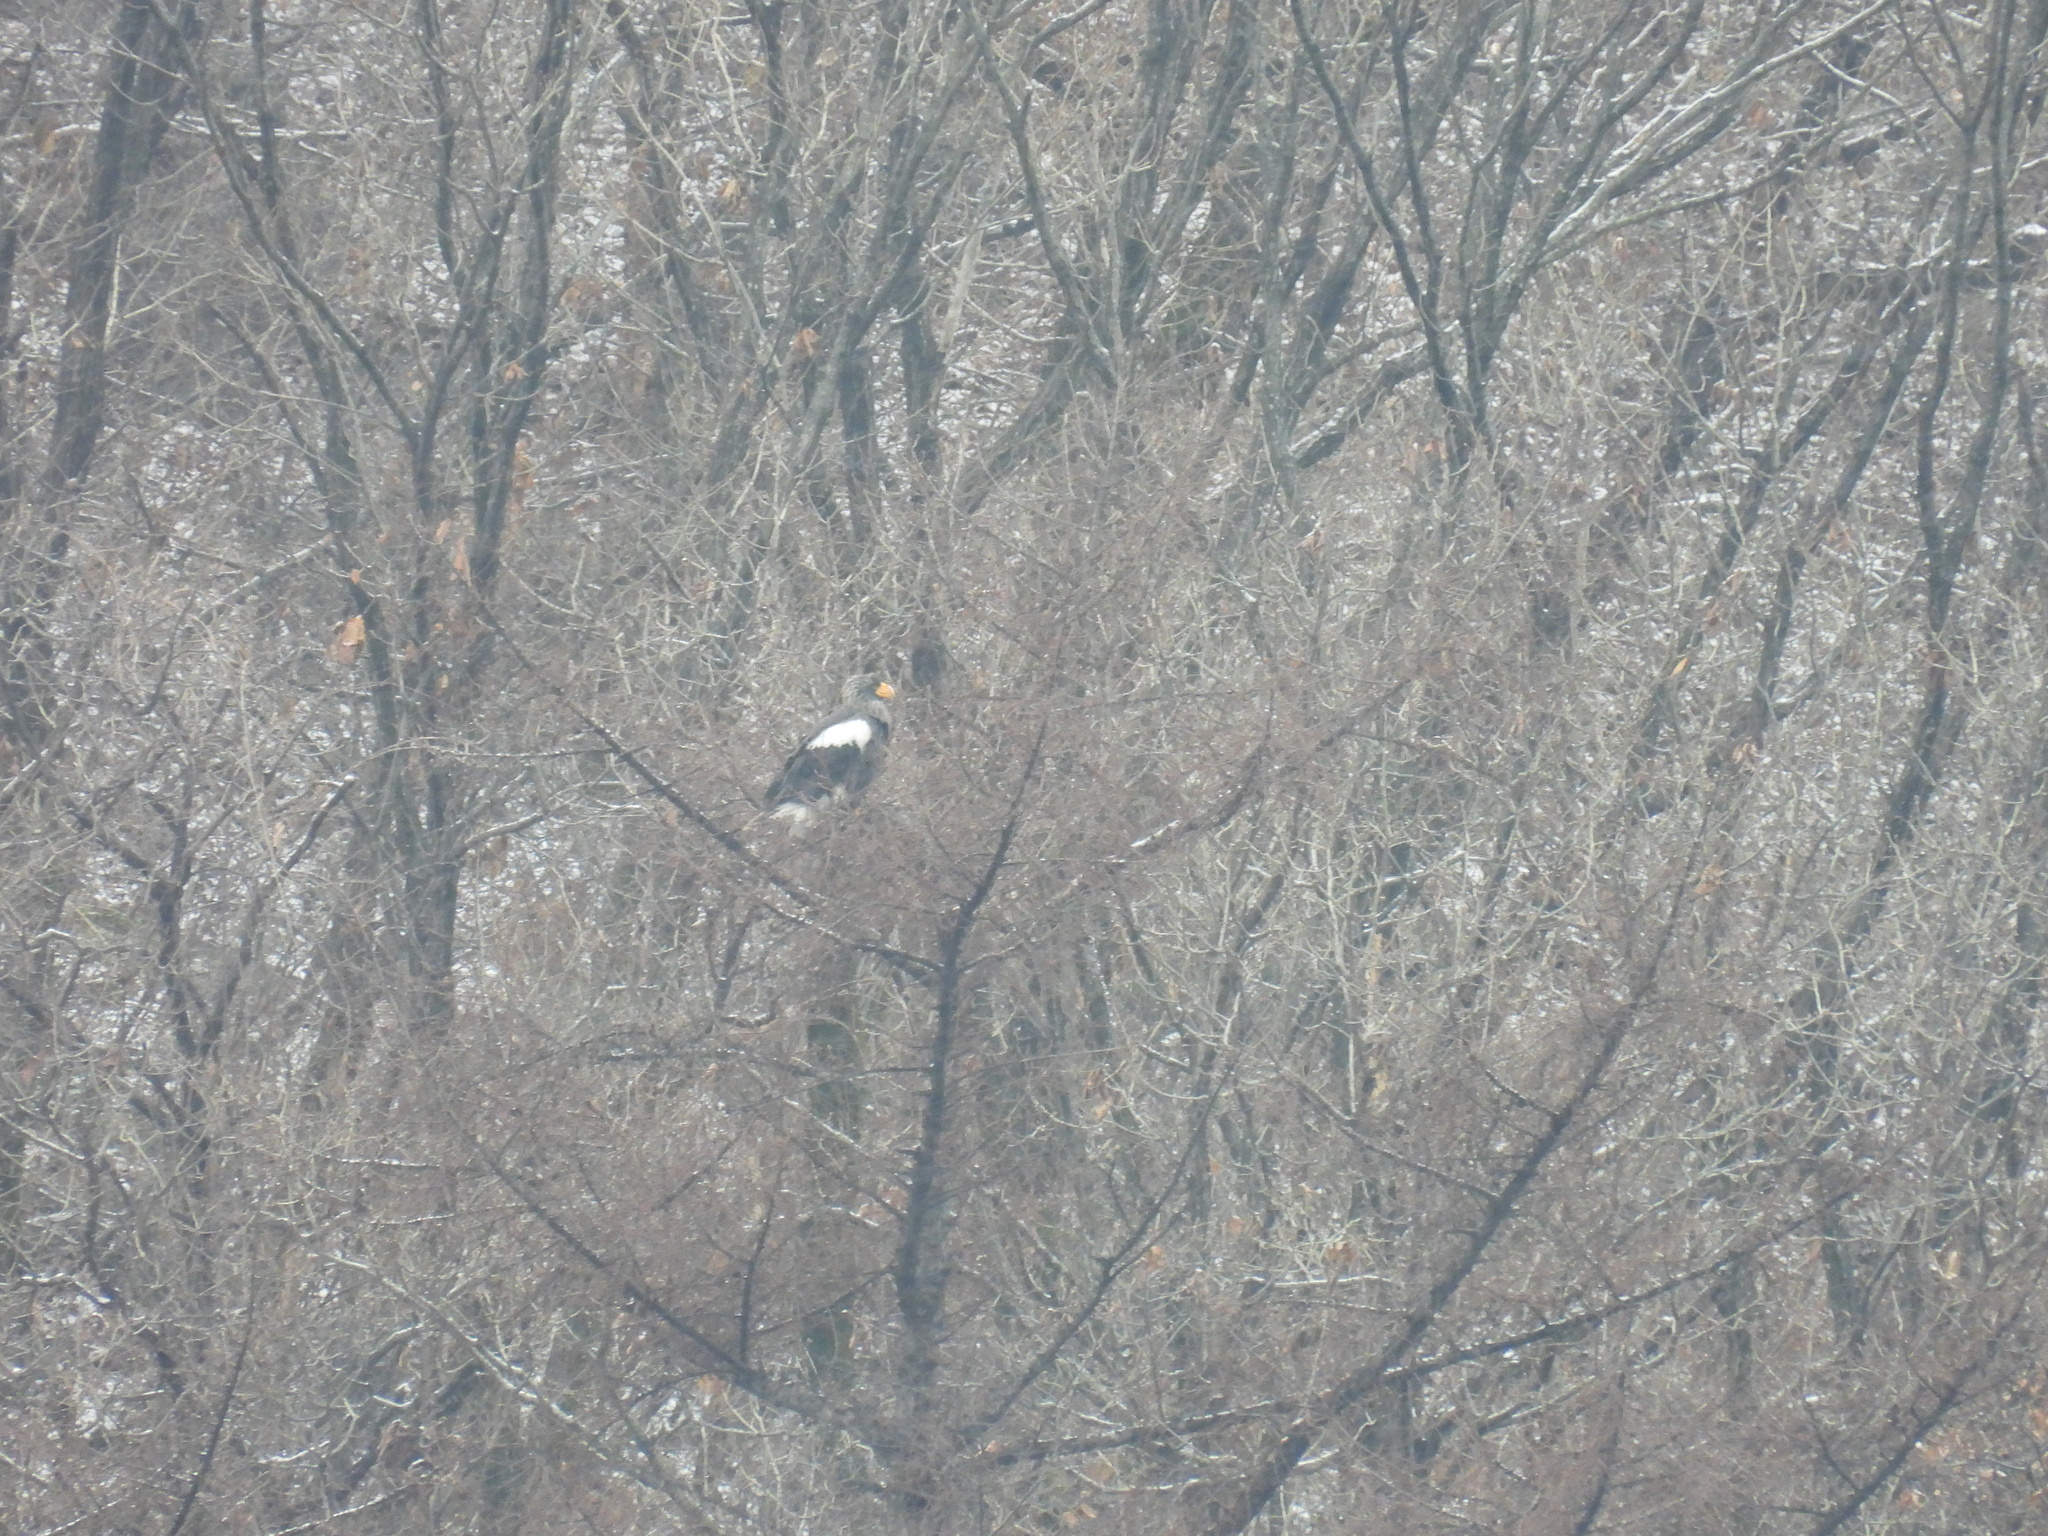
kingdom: Animalia
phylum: Chordata
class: Aves
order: Accipitriformes
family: Accipitridae
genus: Haliaeetus
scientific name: Haliaeetus pelagicus
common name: Steller's sea eagle
